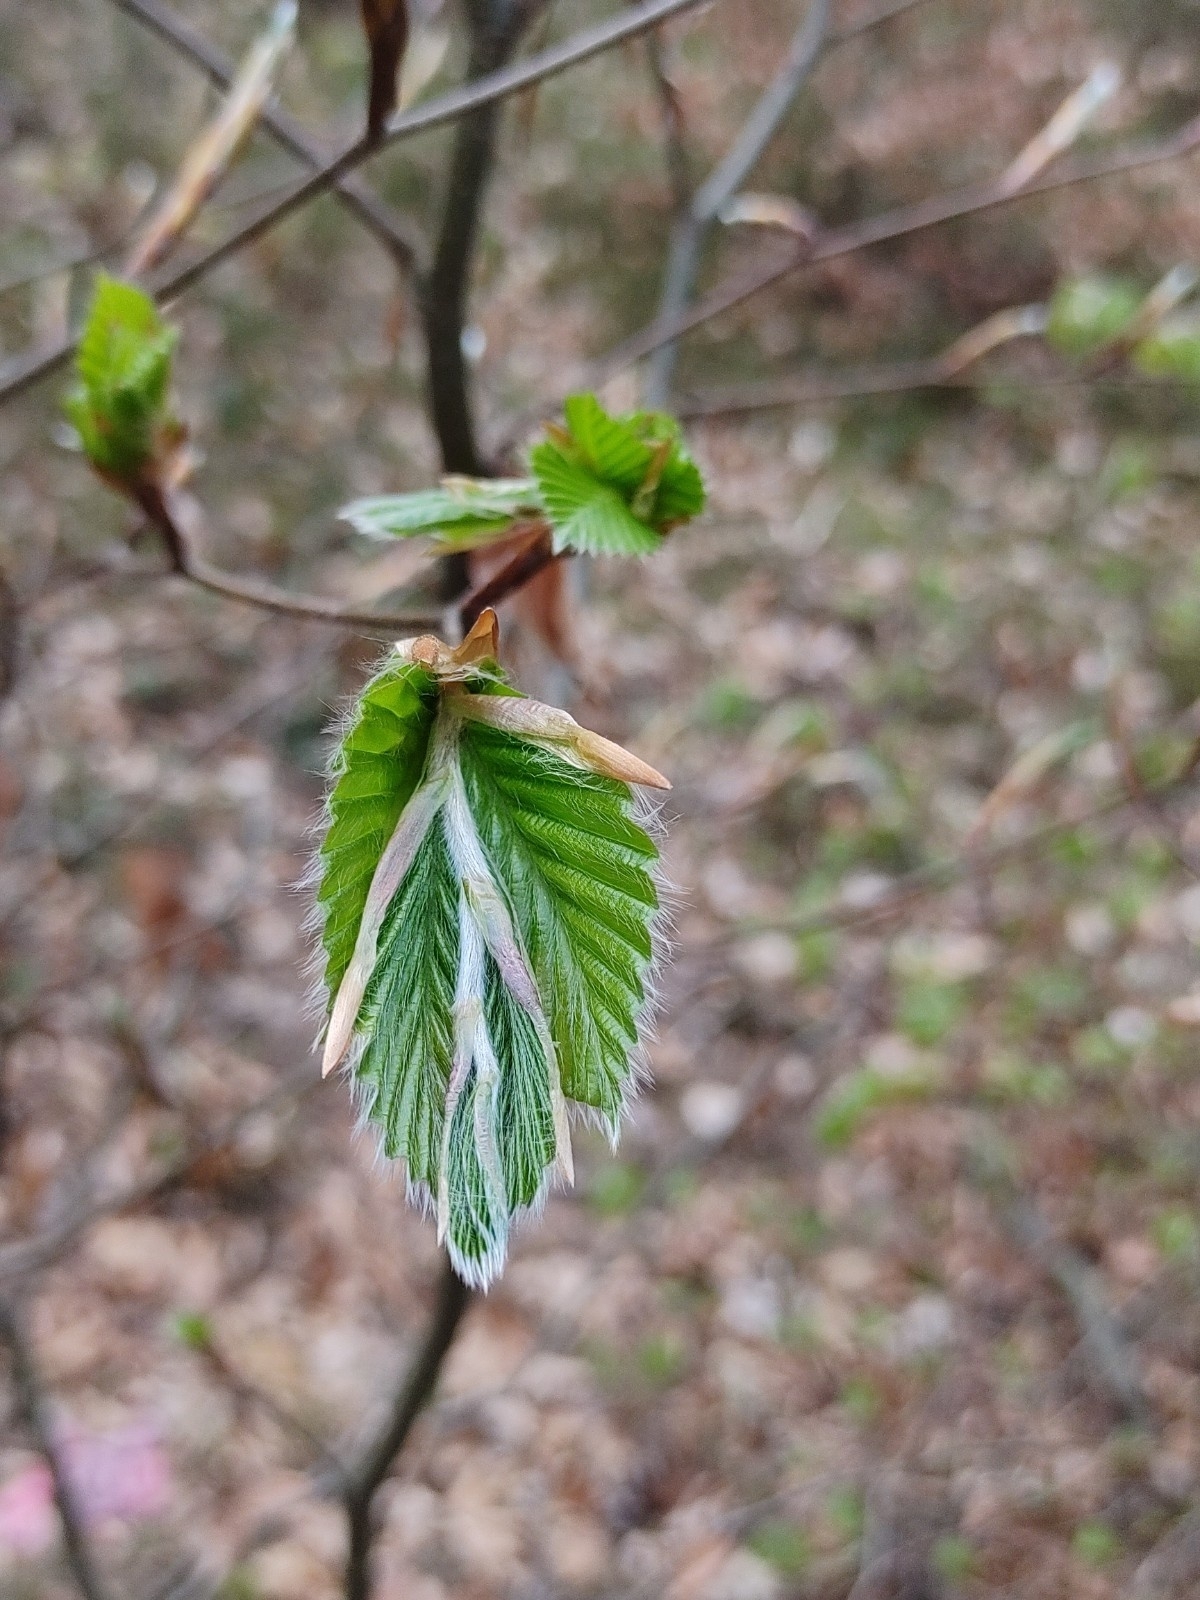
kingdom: Plantae
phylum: Tracheophyta
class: Magnoliopsida
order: Fagales
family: Fagaceae
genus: Fagus
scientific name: Fagus sylvatica
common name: Beech
